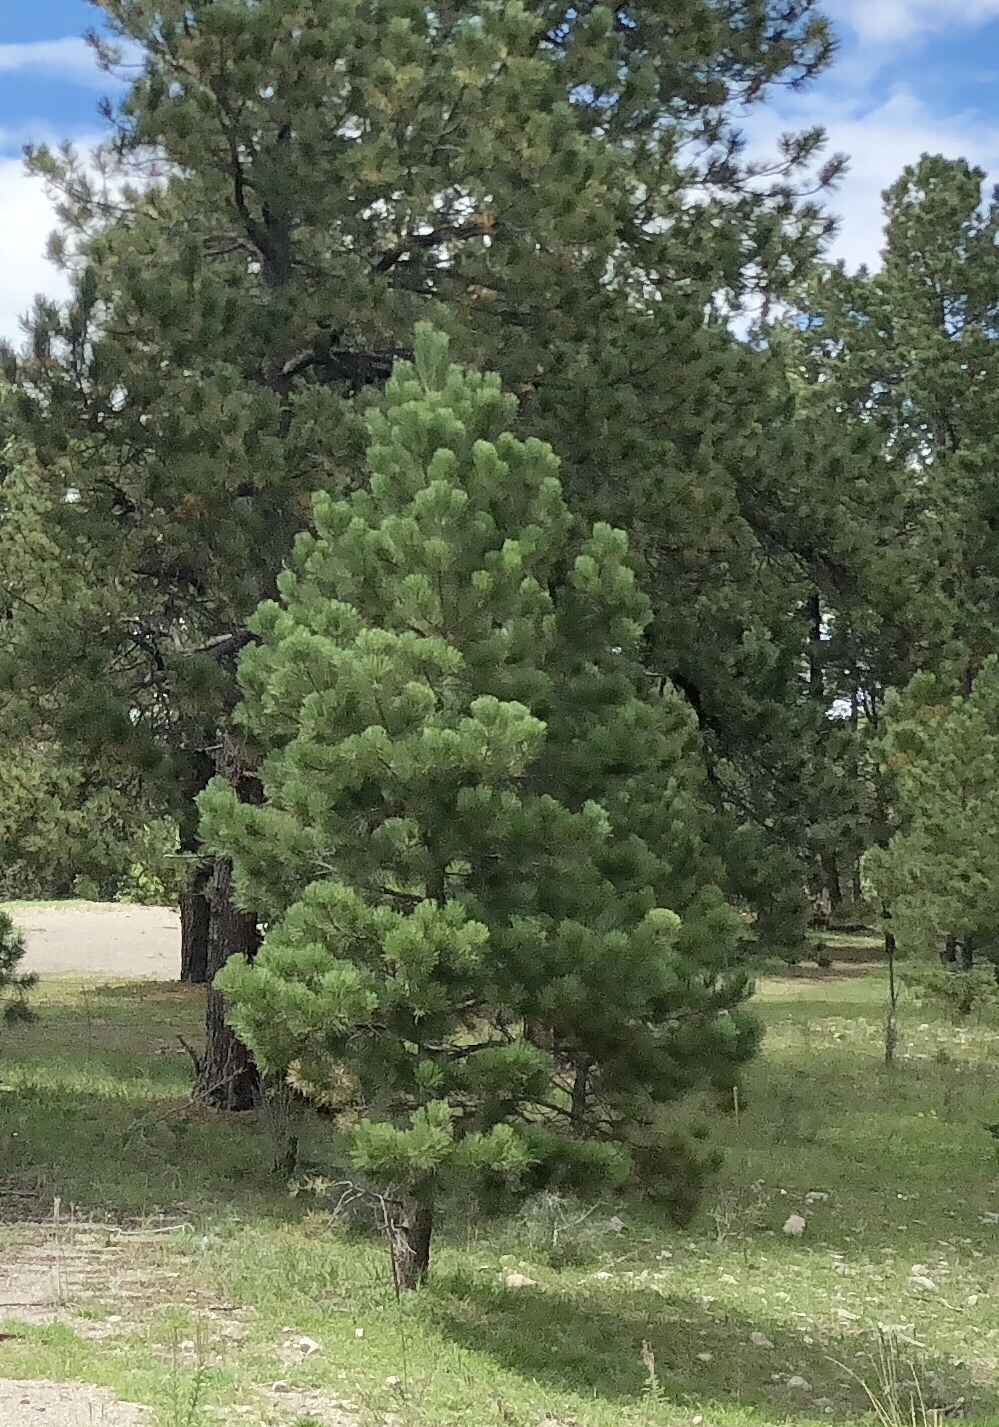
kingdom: Plantae
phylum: Tracheophyta
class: Pinopsida
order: Pinales
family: Pinaceae
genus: Pinus
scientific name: Pinus ponderosa
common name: Western yellow-pine
